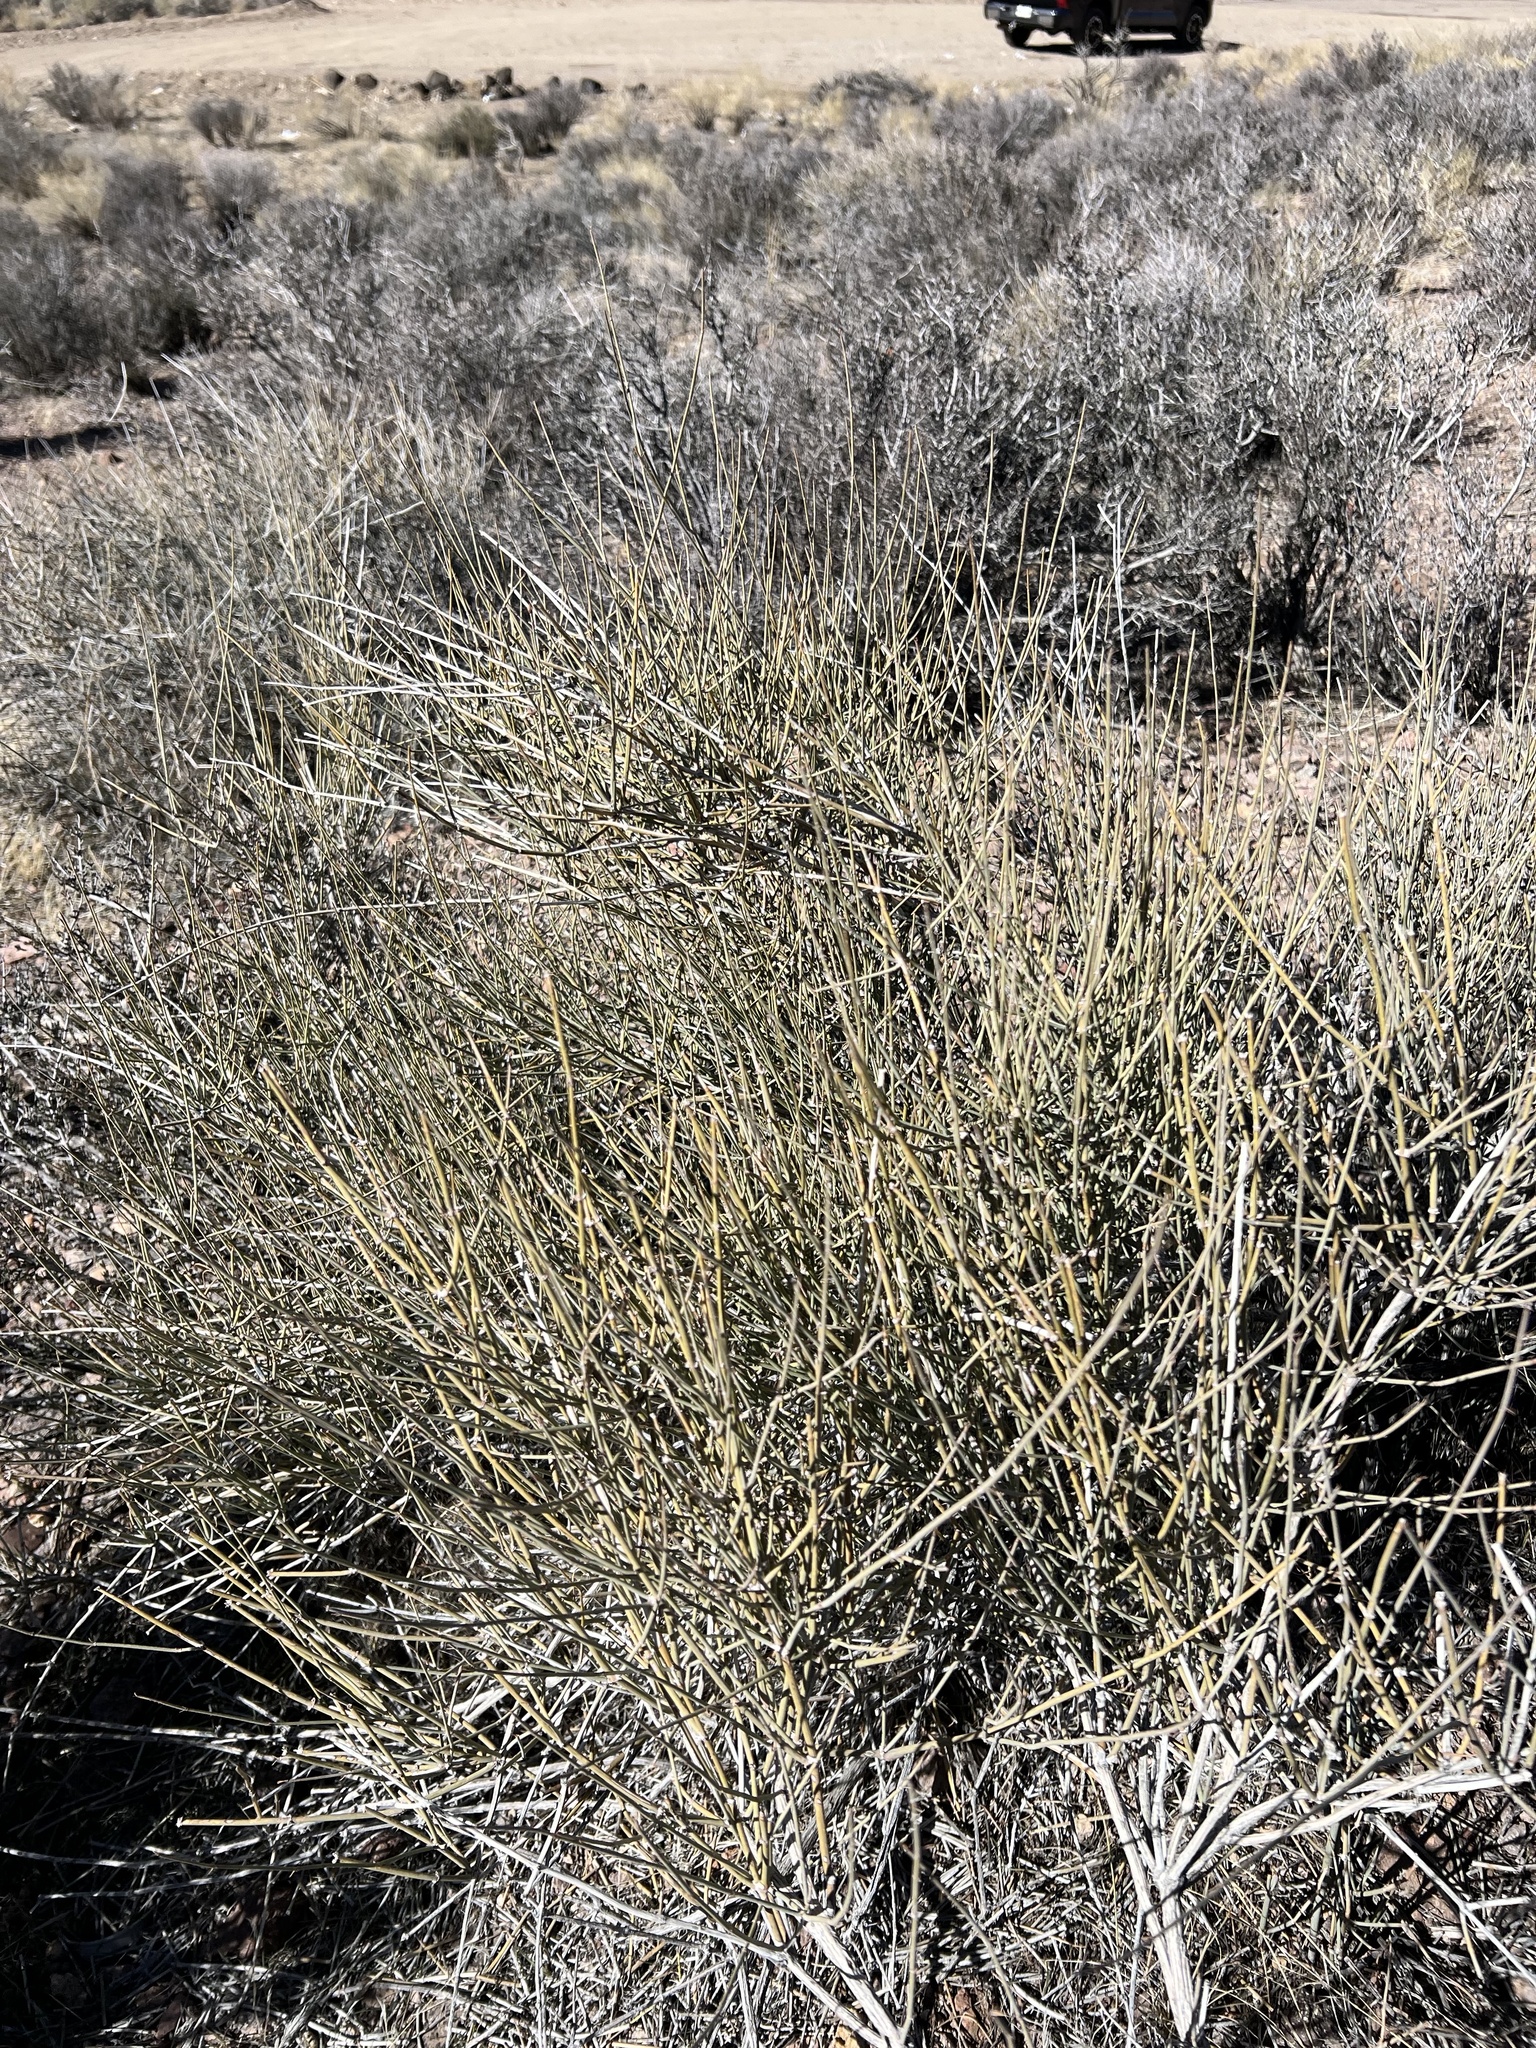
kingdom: Plantae
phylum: Tracheophyta
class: Gnetopsida
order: Ephedrales
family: Ephedraceae
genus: Ephedra
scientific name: Ephedra aspera
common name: Boundary ephedra
